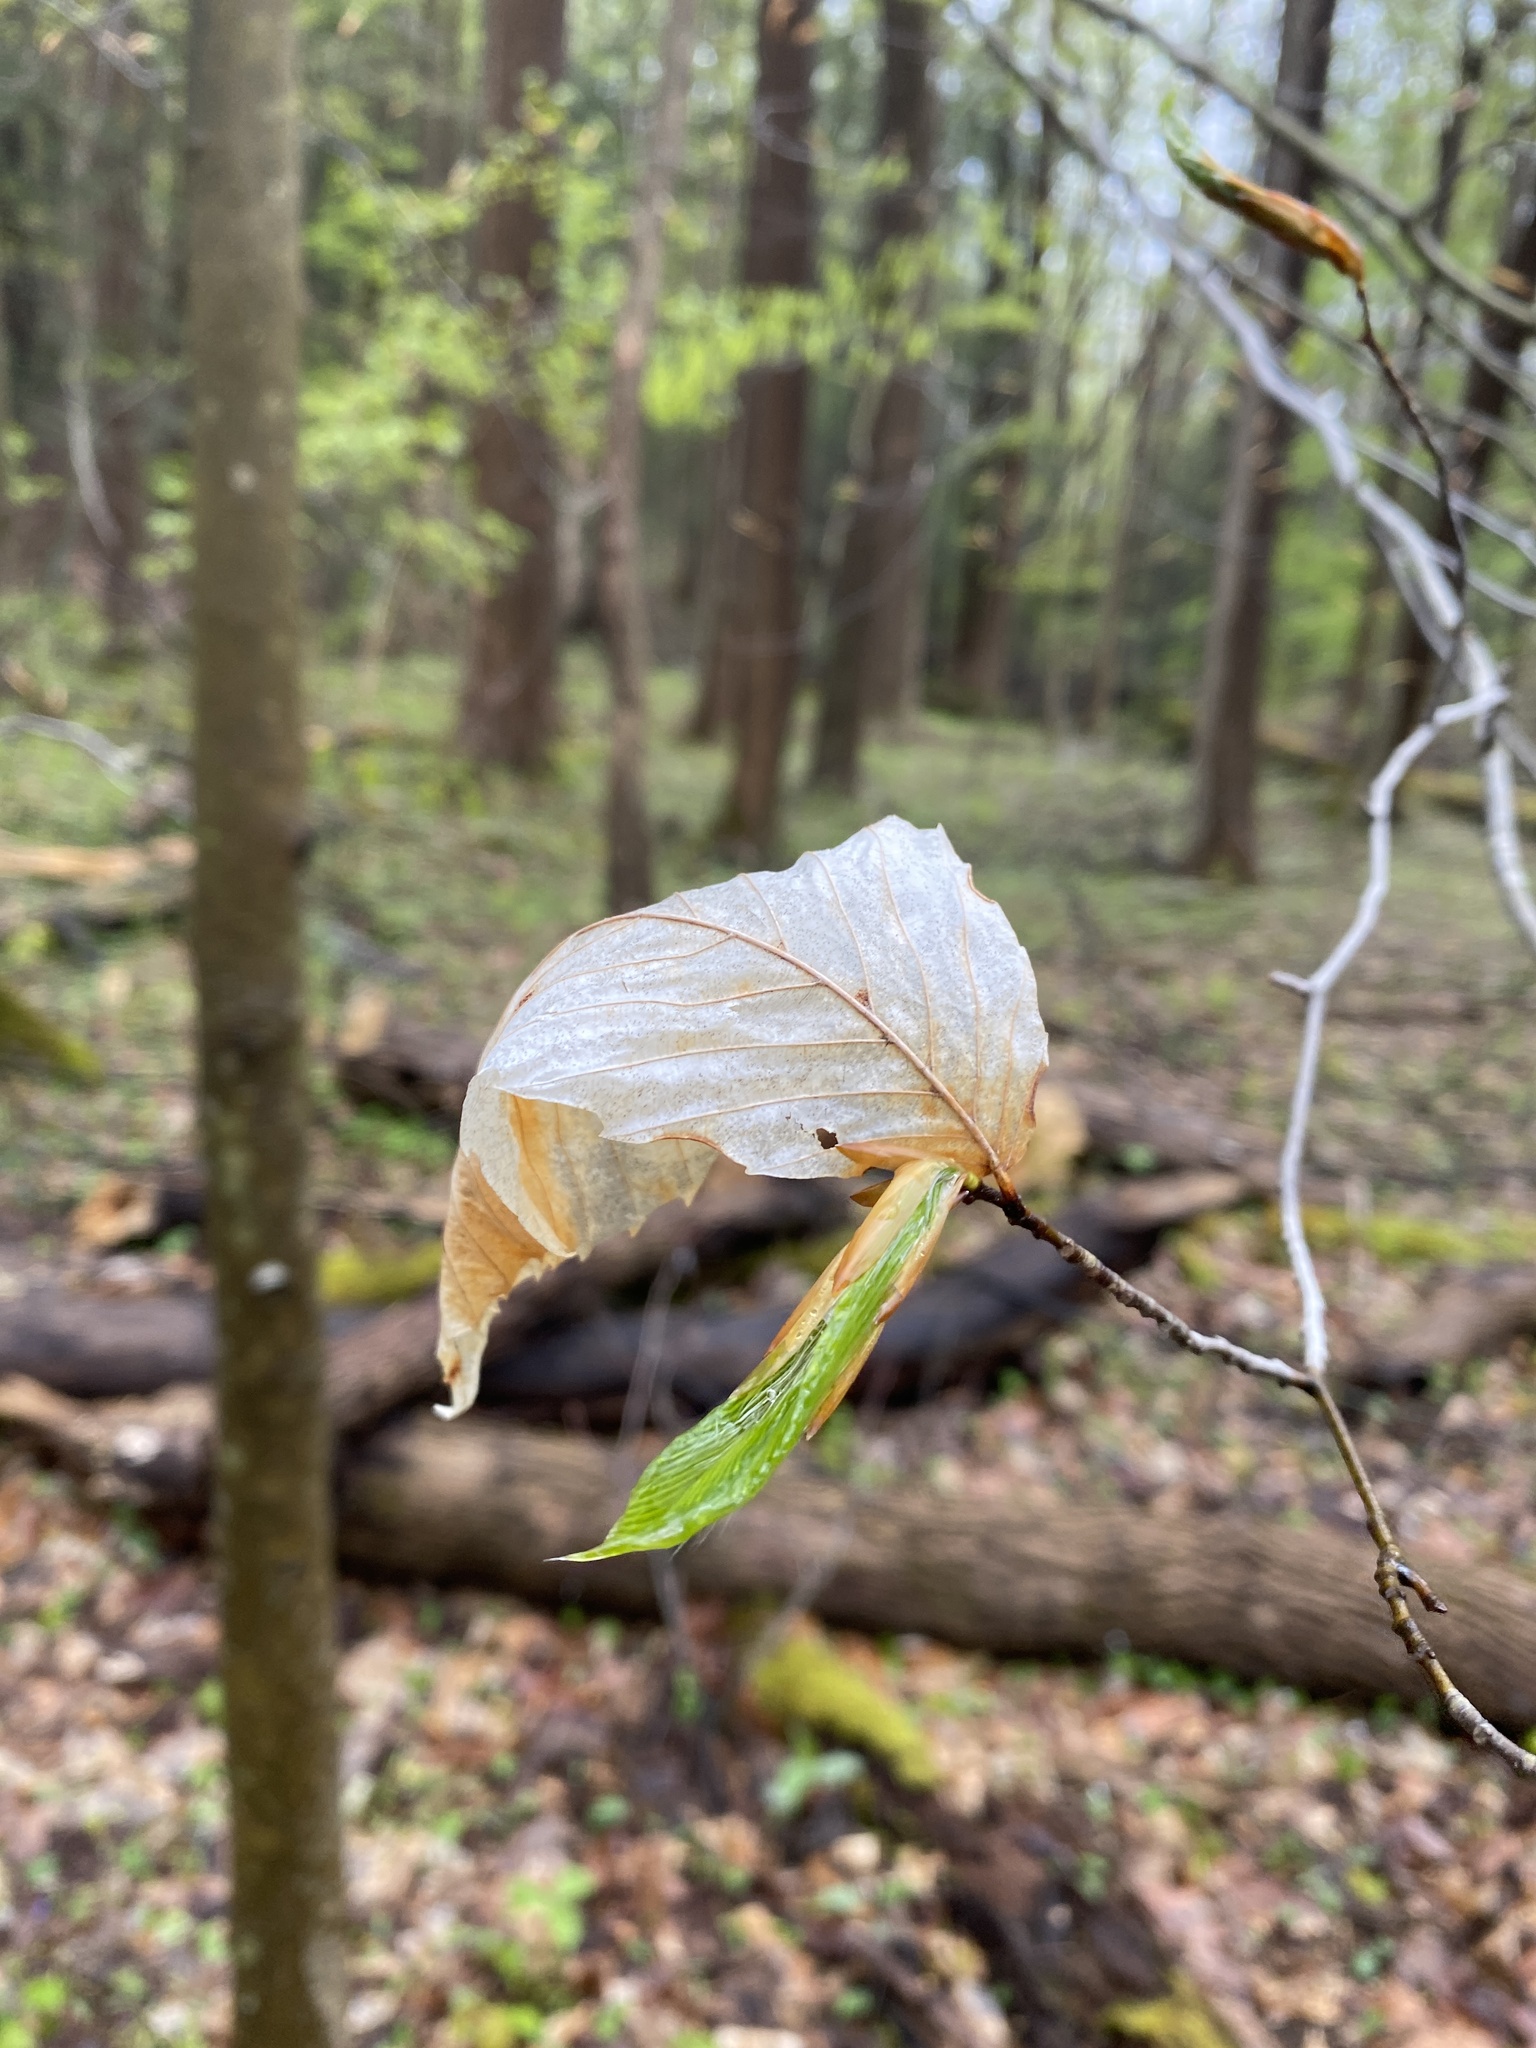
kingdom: Plantae
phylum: Tracheophyta
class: Magnoliopsida
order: Fagales
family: Fagaceae
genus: Fagus
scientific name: Fagus grandifolia
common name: American beech
